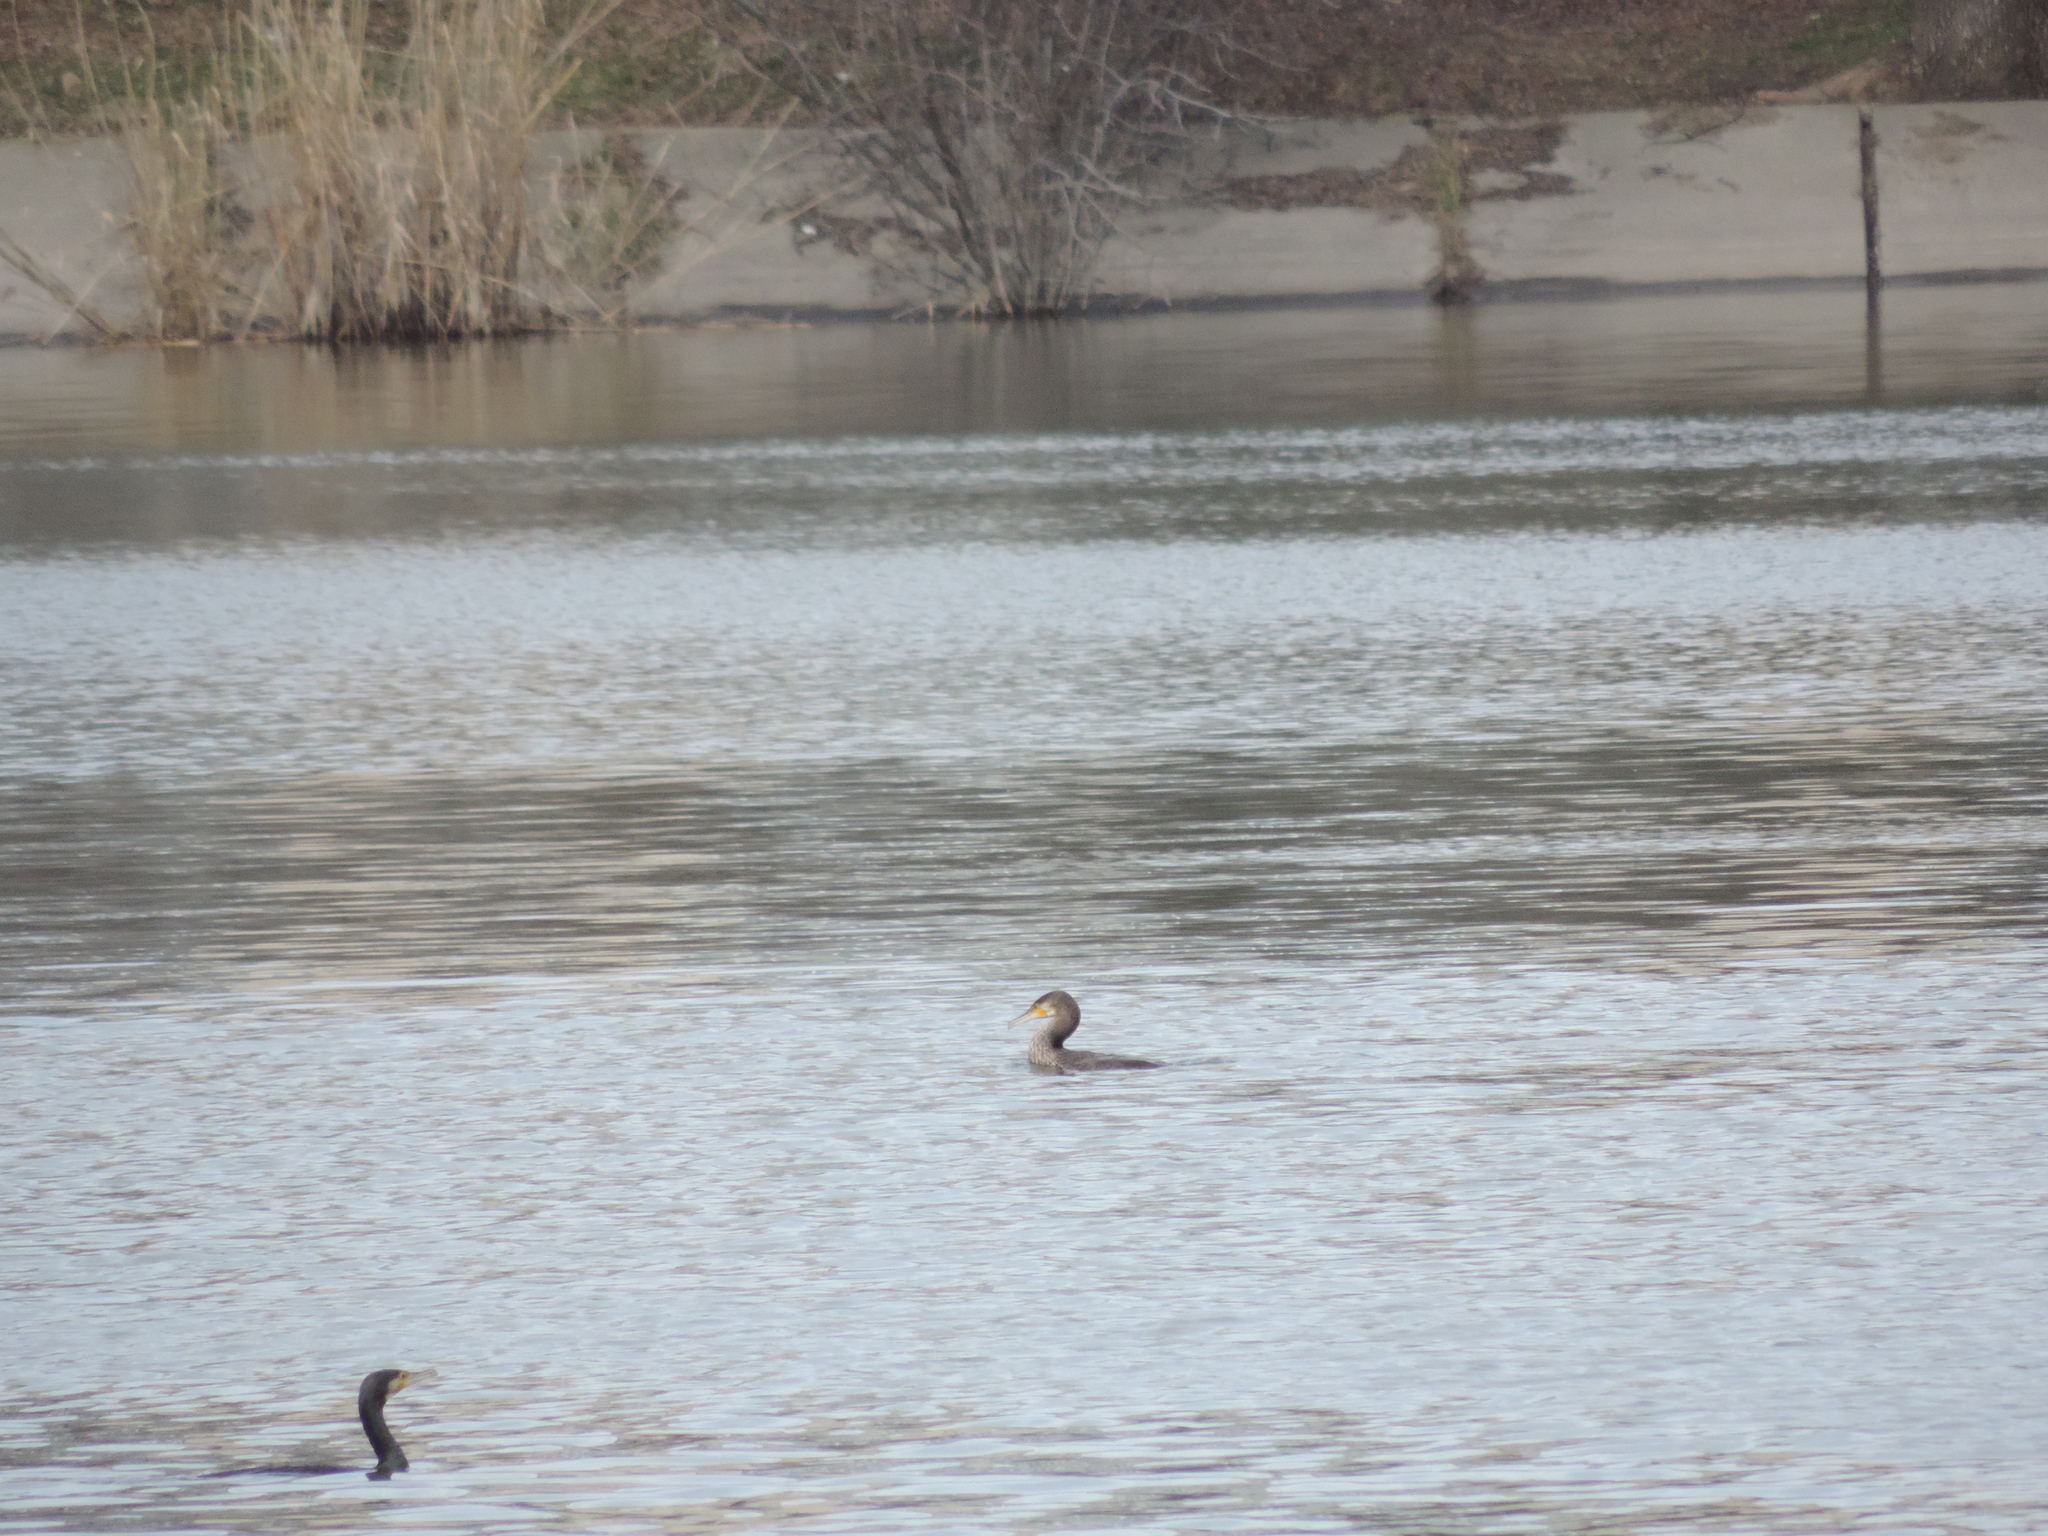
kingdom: Animalia
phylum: Chordata
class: Aves
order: Suliformes
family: Phalacrocoracidae
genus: Phalacrocorax
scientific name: Phalacrocorax carbo
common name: Great cormorant
